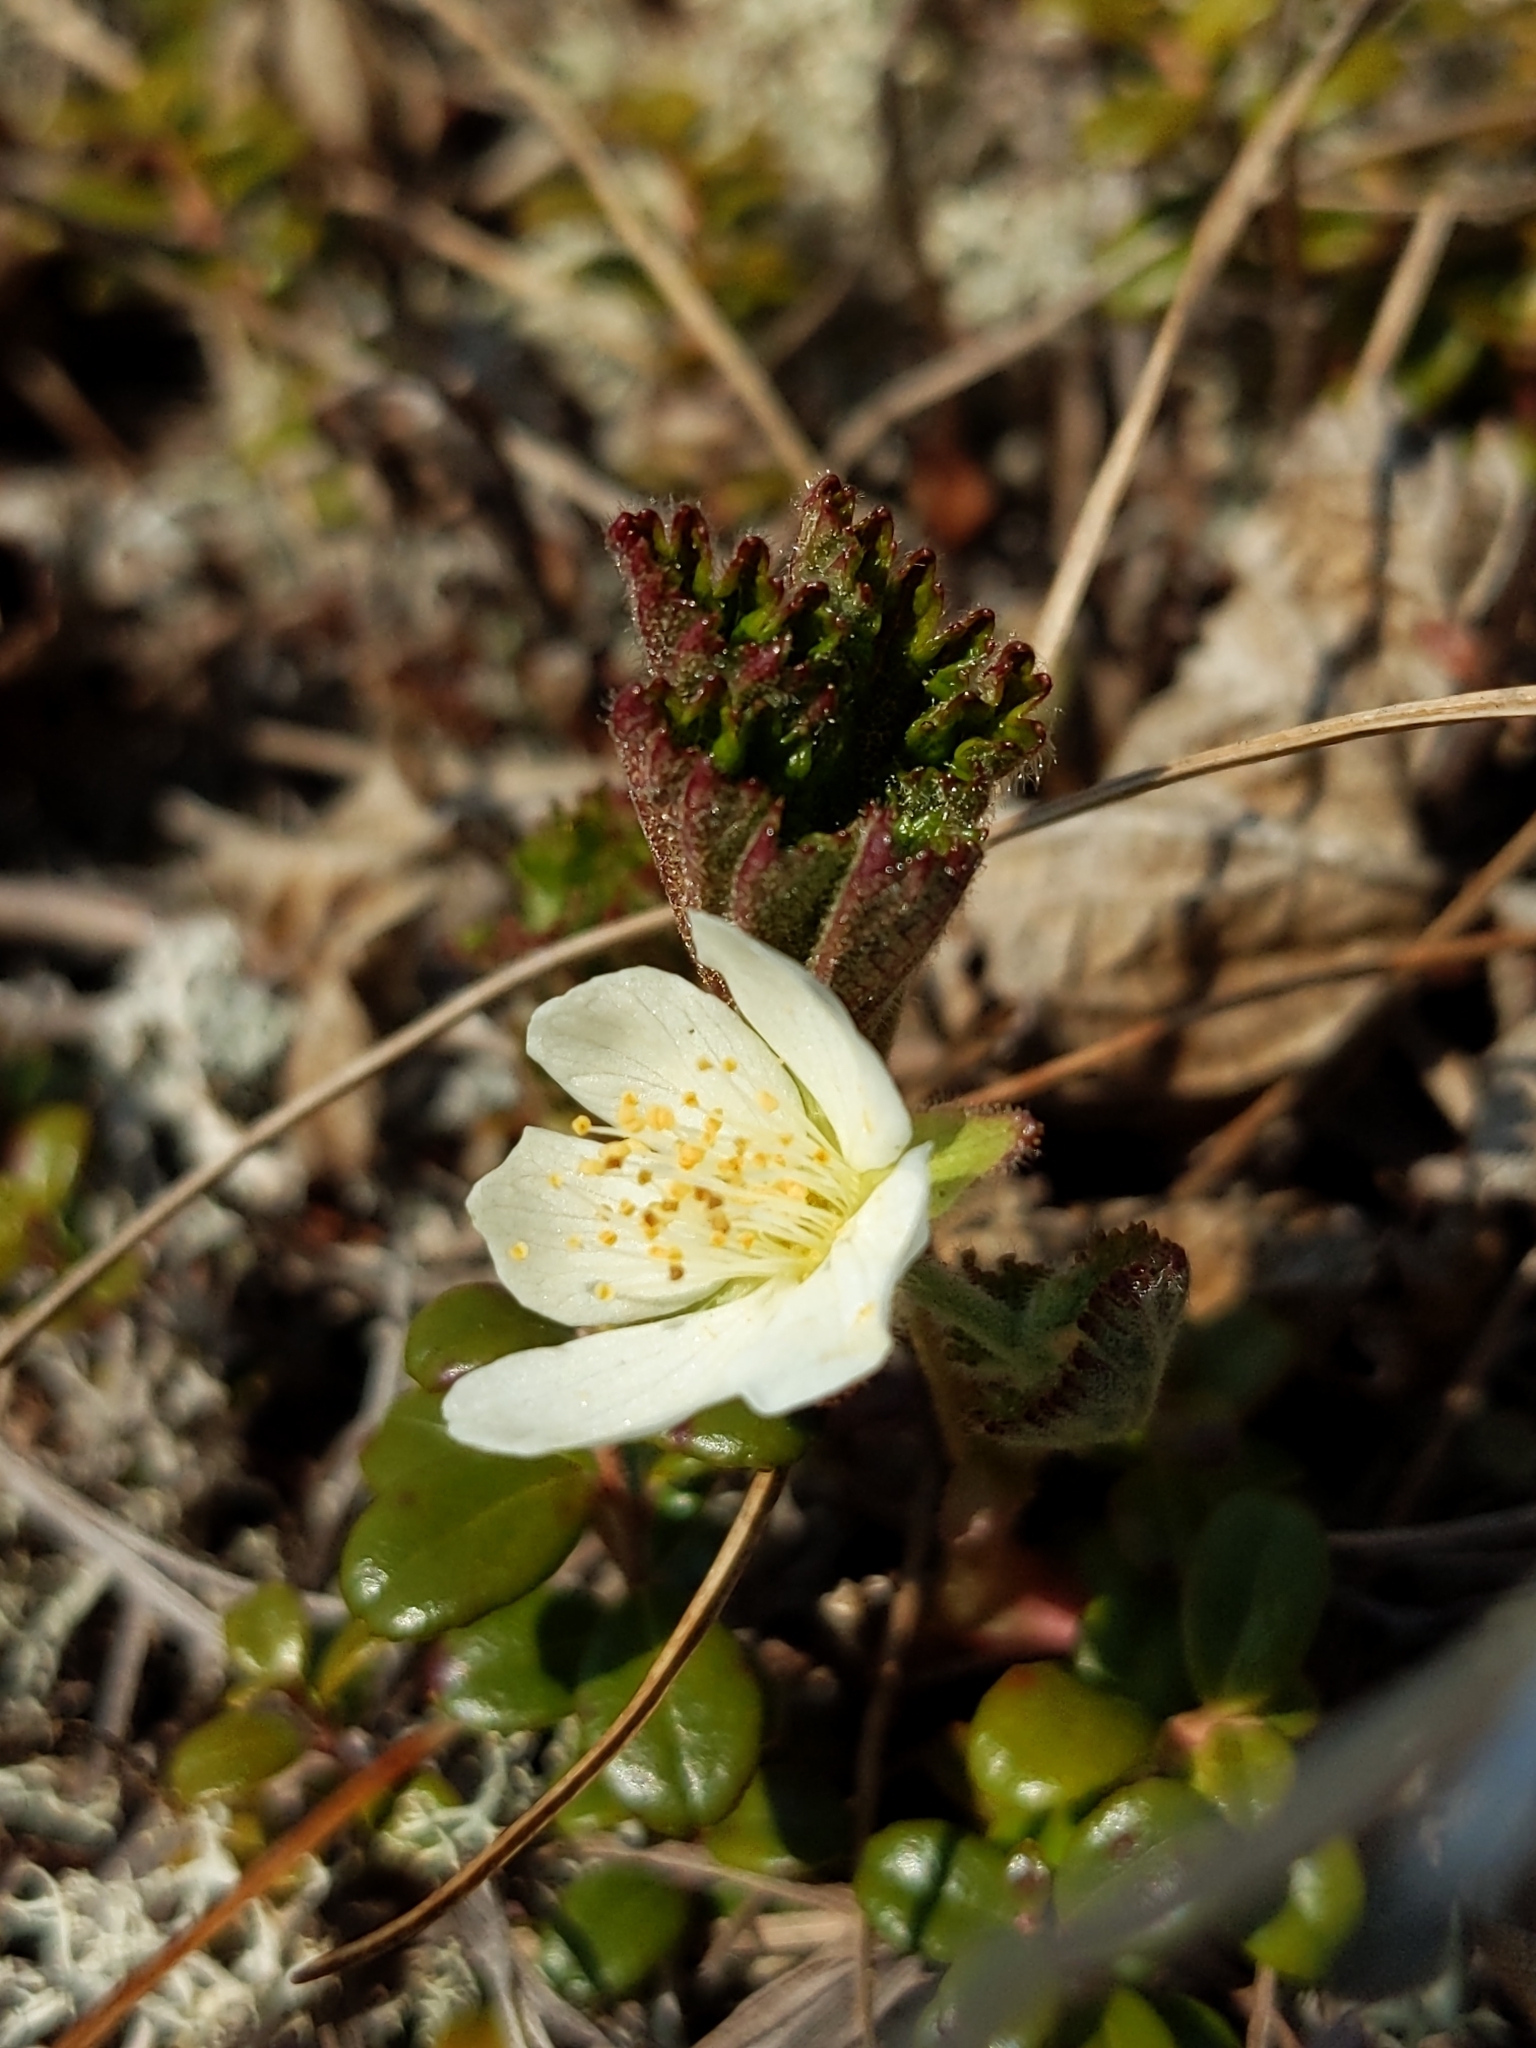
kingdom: Plantae
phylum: Tracheophyta
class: Magnoliopsida
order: Rosales
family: Rosaceae
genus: Rubus
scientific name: Rubus chamaemorus
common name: Cloudberry
